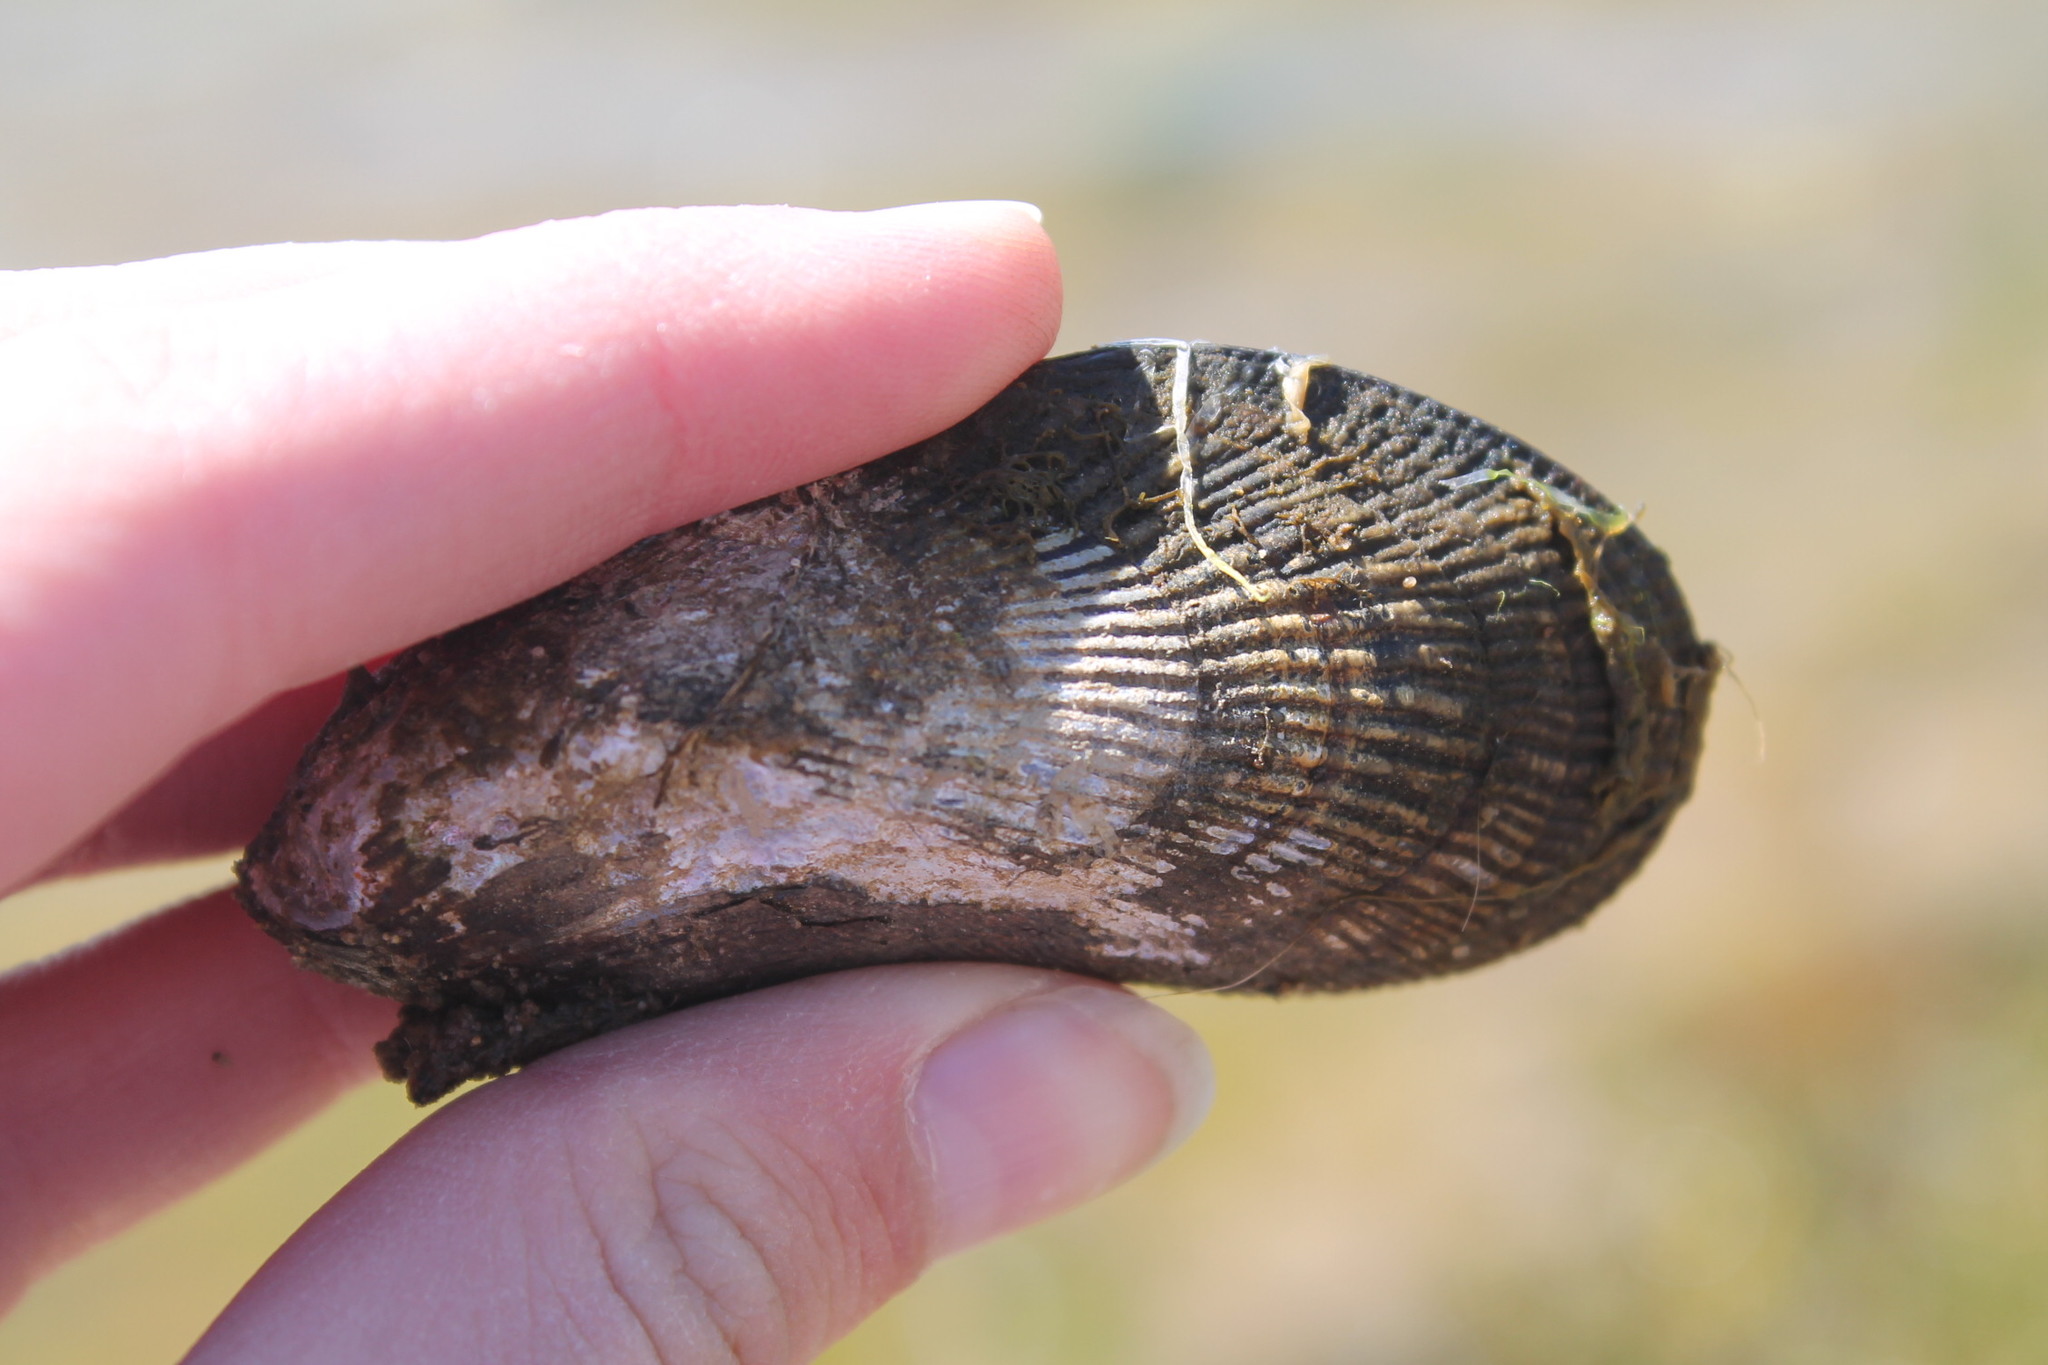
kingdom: Animalia
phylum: Mollusca
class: Bivalvia
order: Mytilida
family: Mytilidae
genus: Geukensia
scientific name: Geukensia demissa
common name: Ribbed mussel
